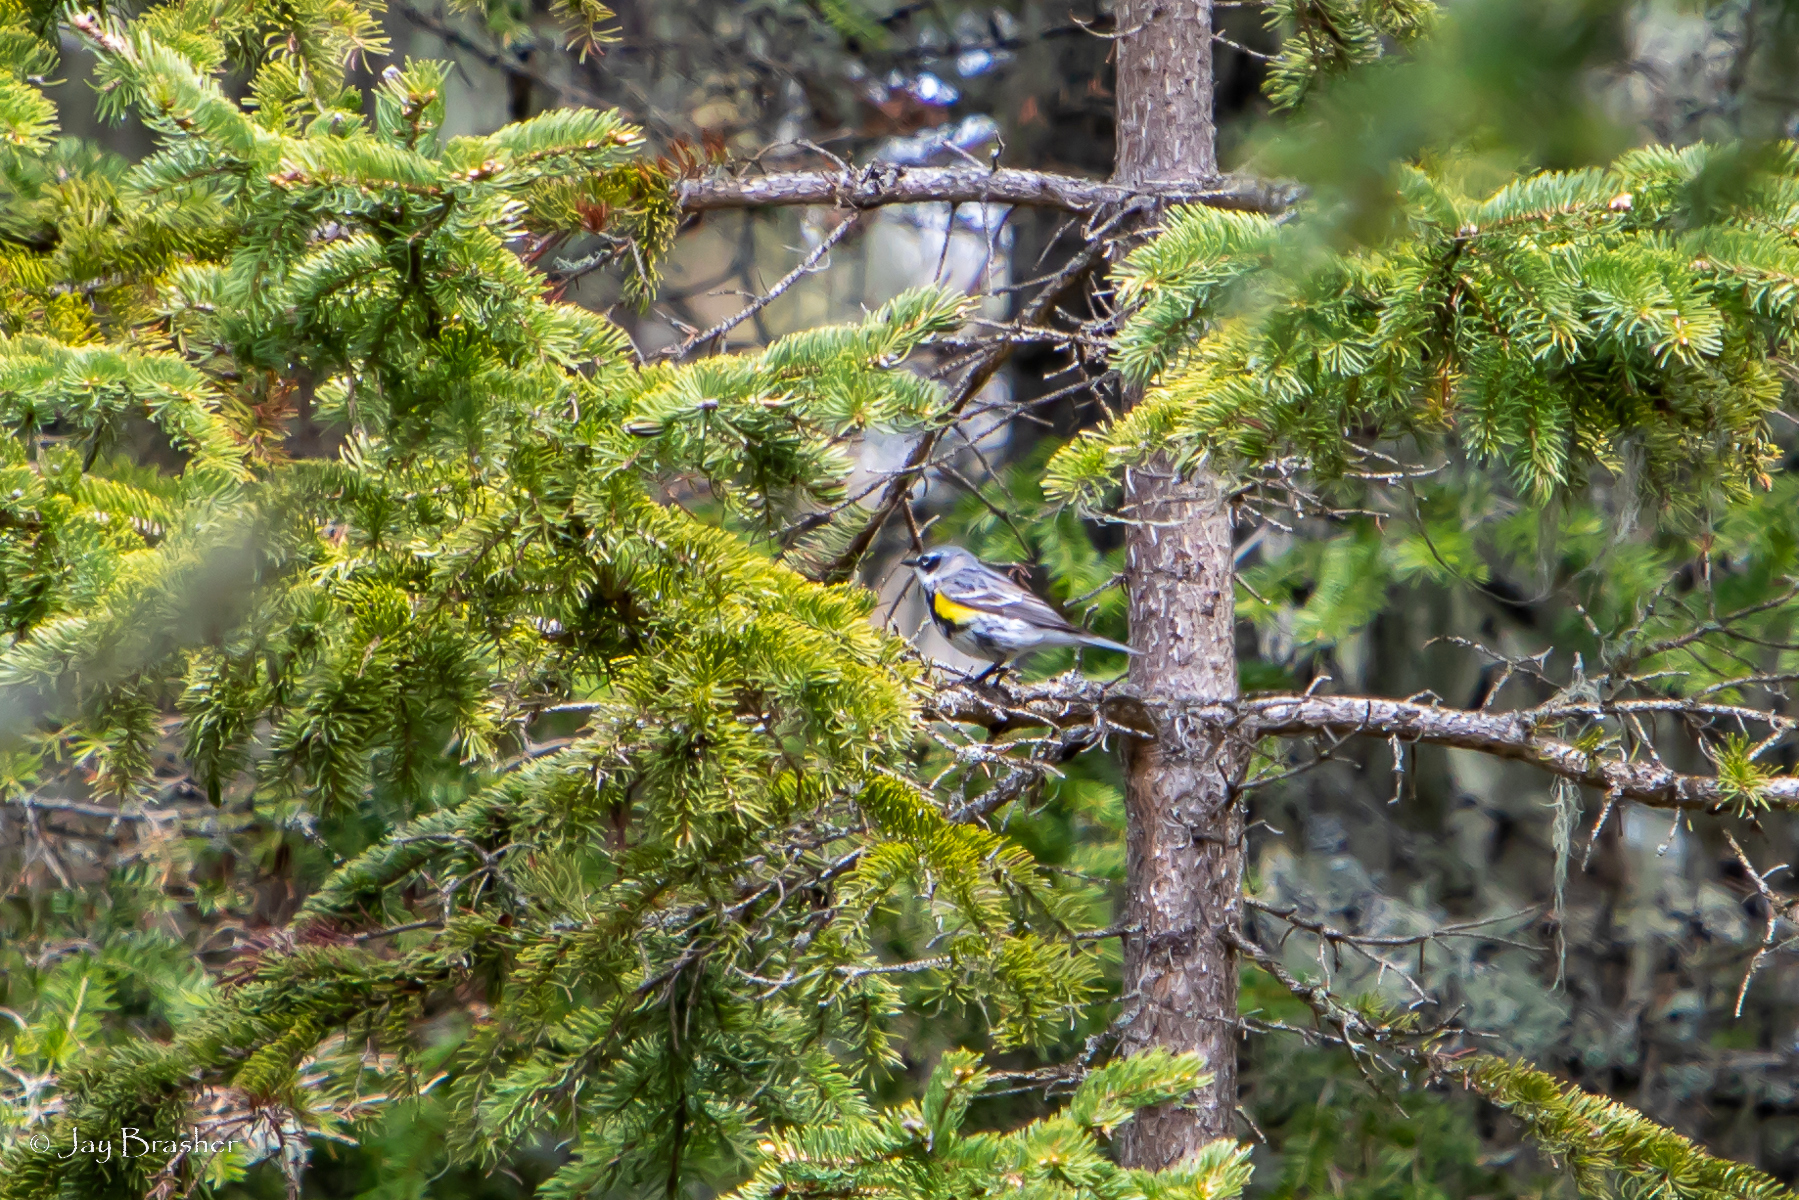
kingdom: Animalia
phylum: Chordata
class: Aves
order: Passeriformes
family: Parulidae
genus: Setophaga
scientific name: Setophaga coronata
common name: Myrtle warbler
